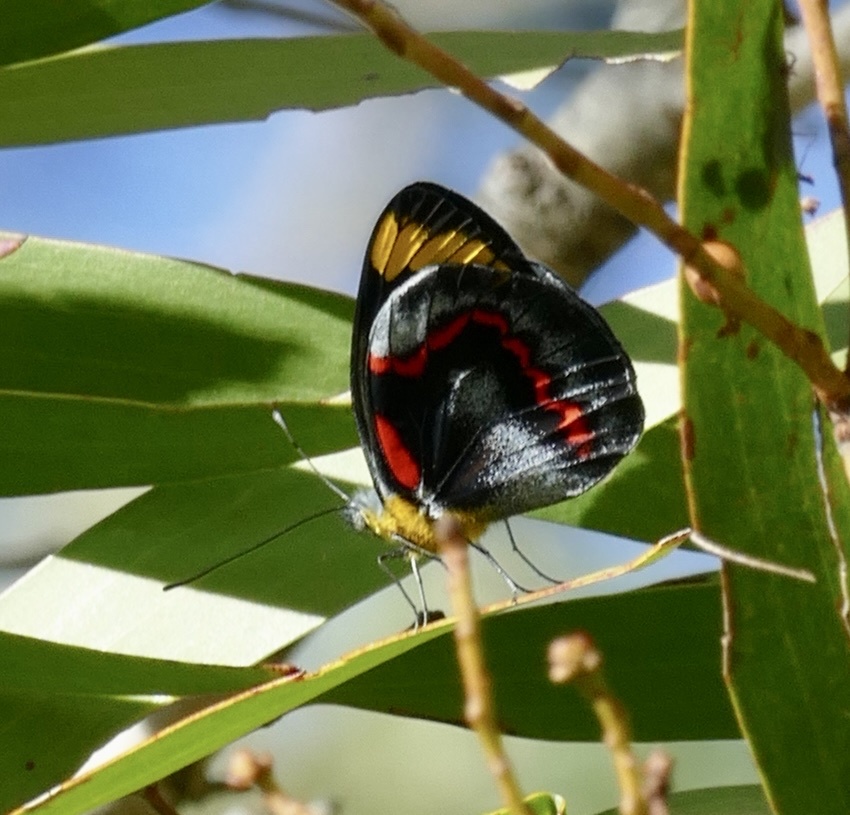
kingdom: Animalia
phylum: Arthropoda
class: Insecta
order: Lepidoptera
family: Pieridae
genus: Delias
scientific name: Delias nigrina
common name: Black jezebel
